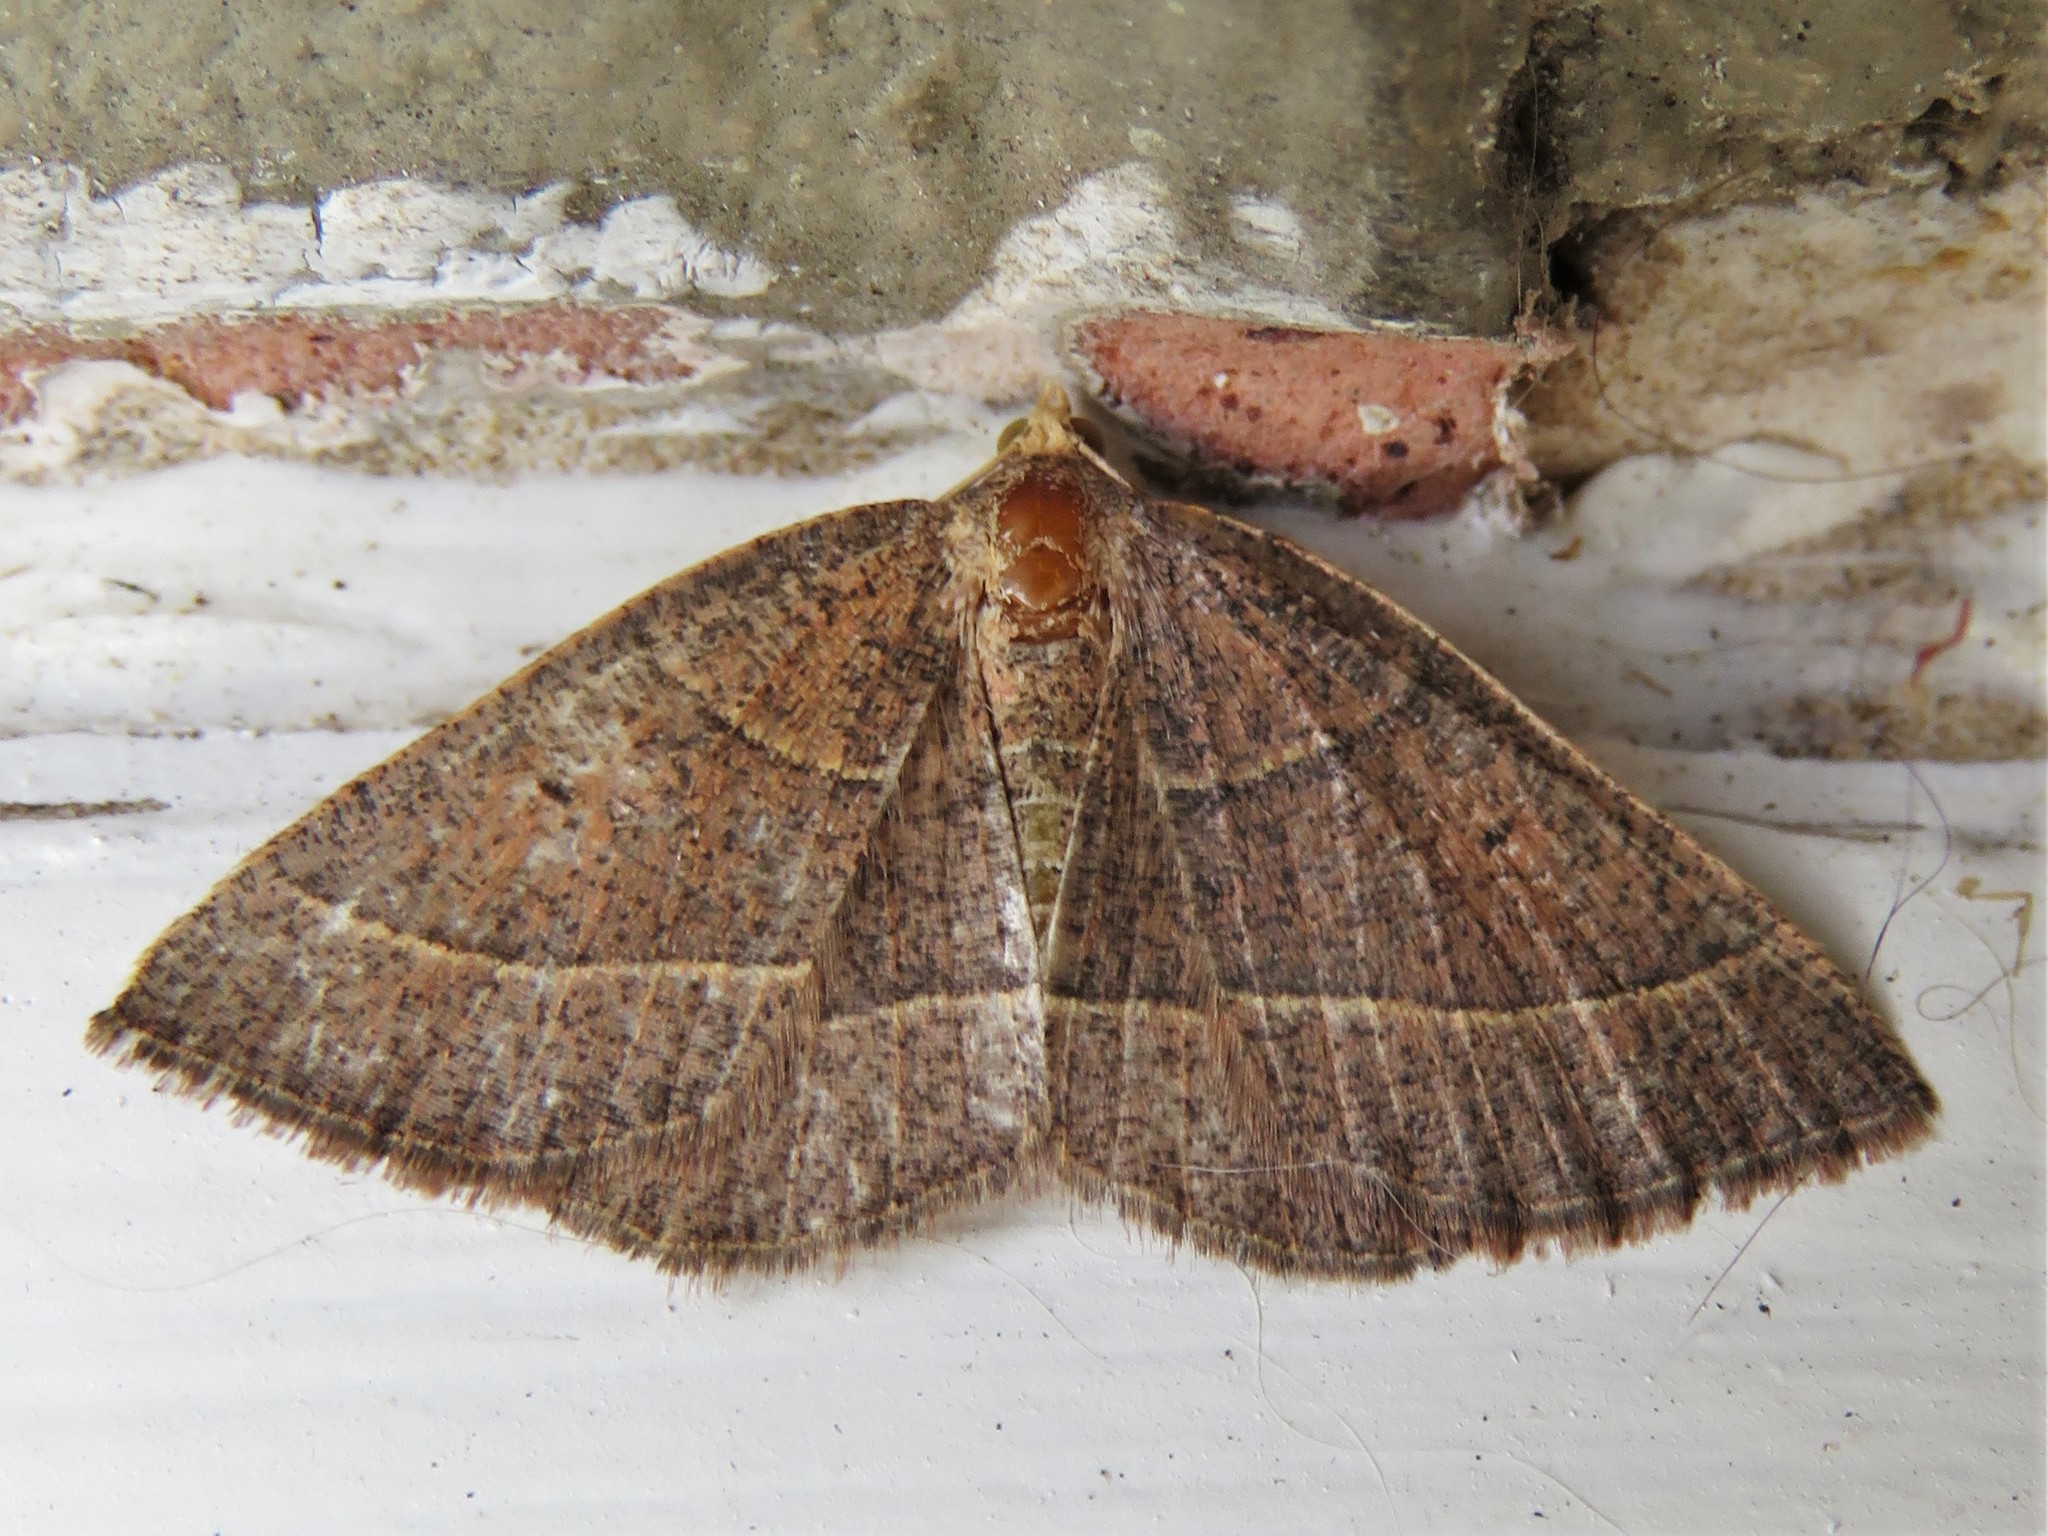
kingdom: Animalia
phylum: Arthropoda
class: Insecta
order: Lepidoptera
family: Geometridae
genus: Episemasia
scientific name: Episemasia cervinaria
